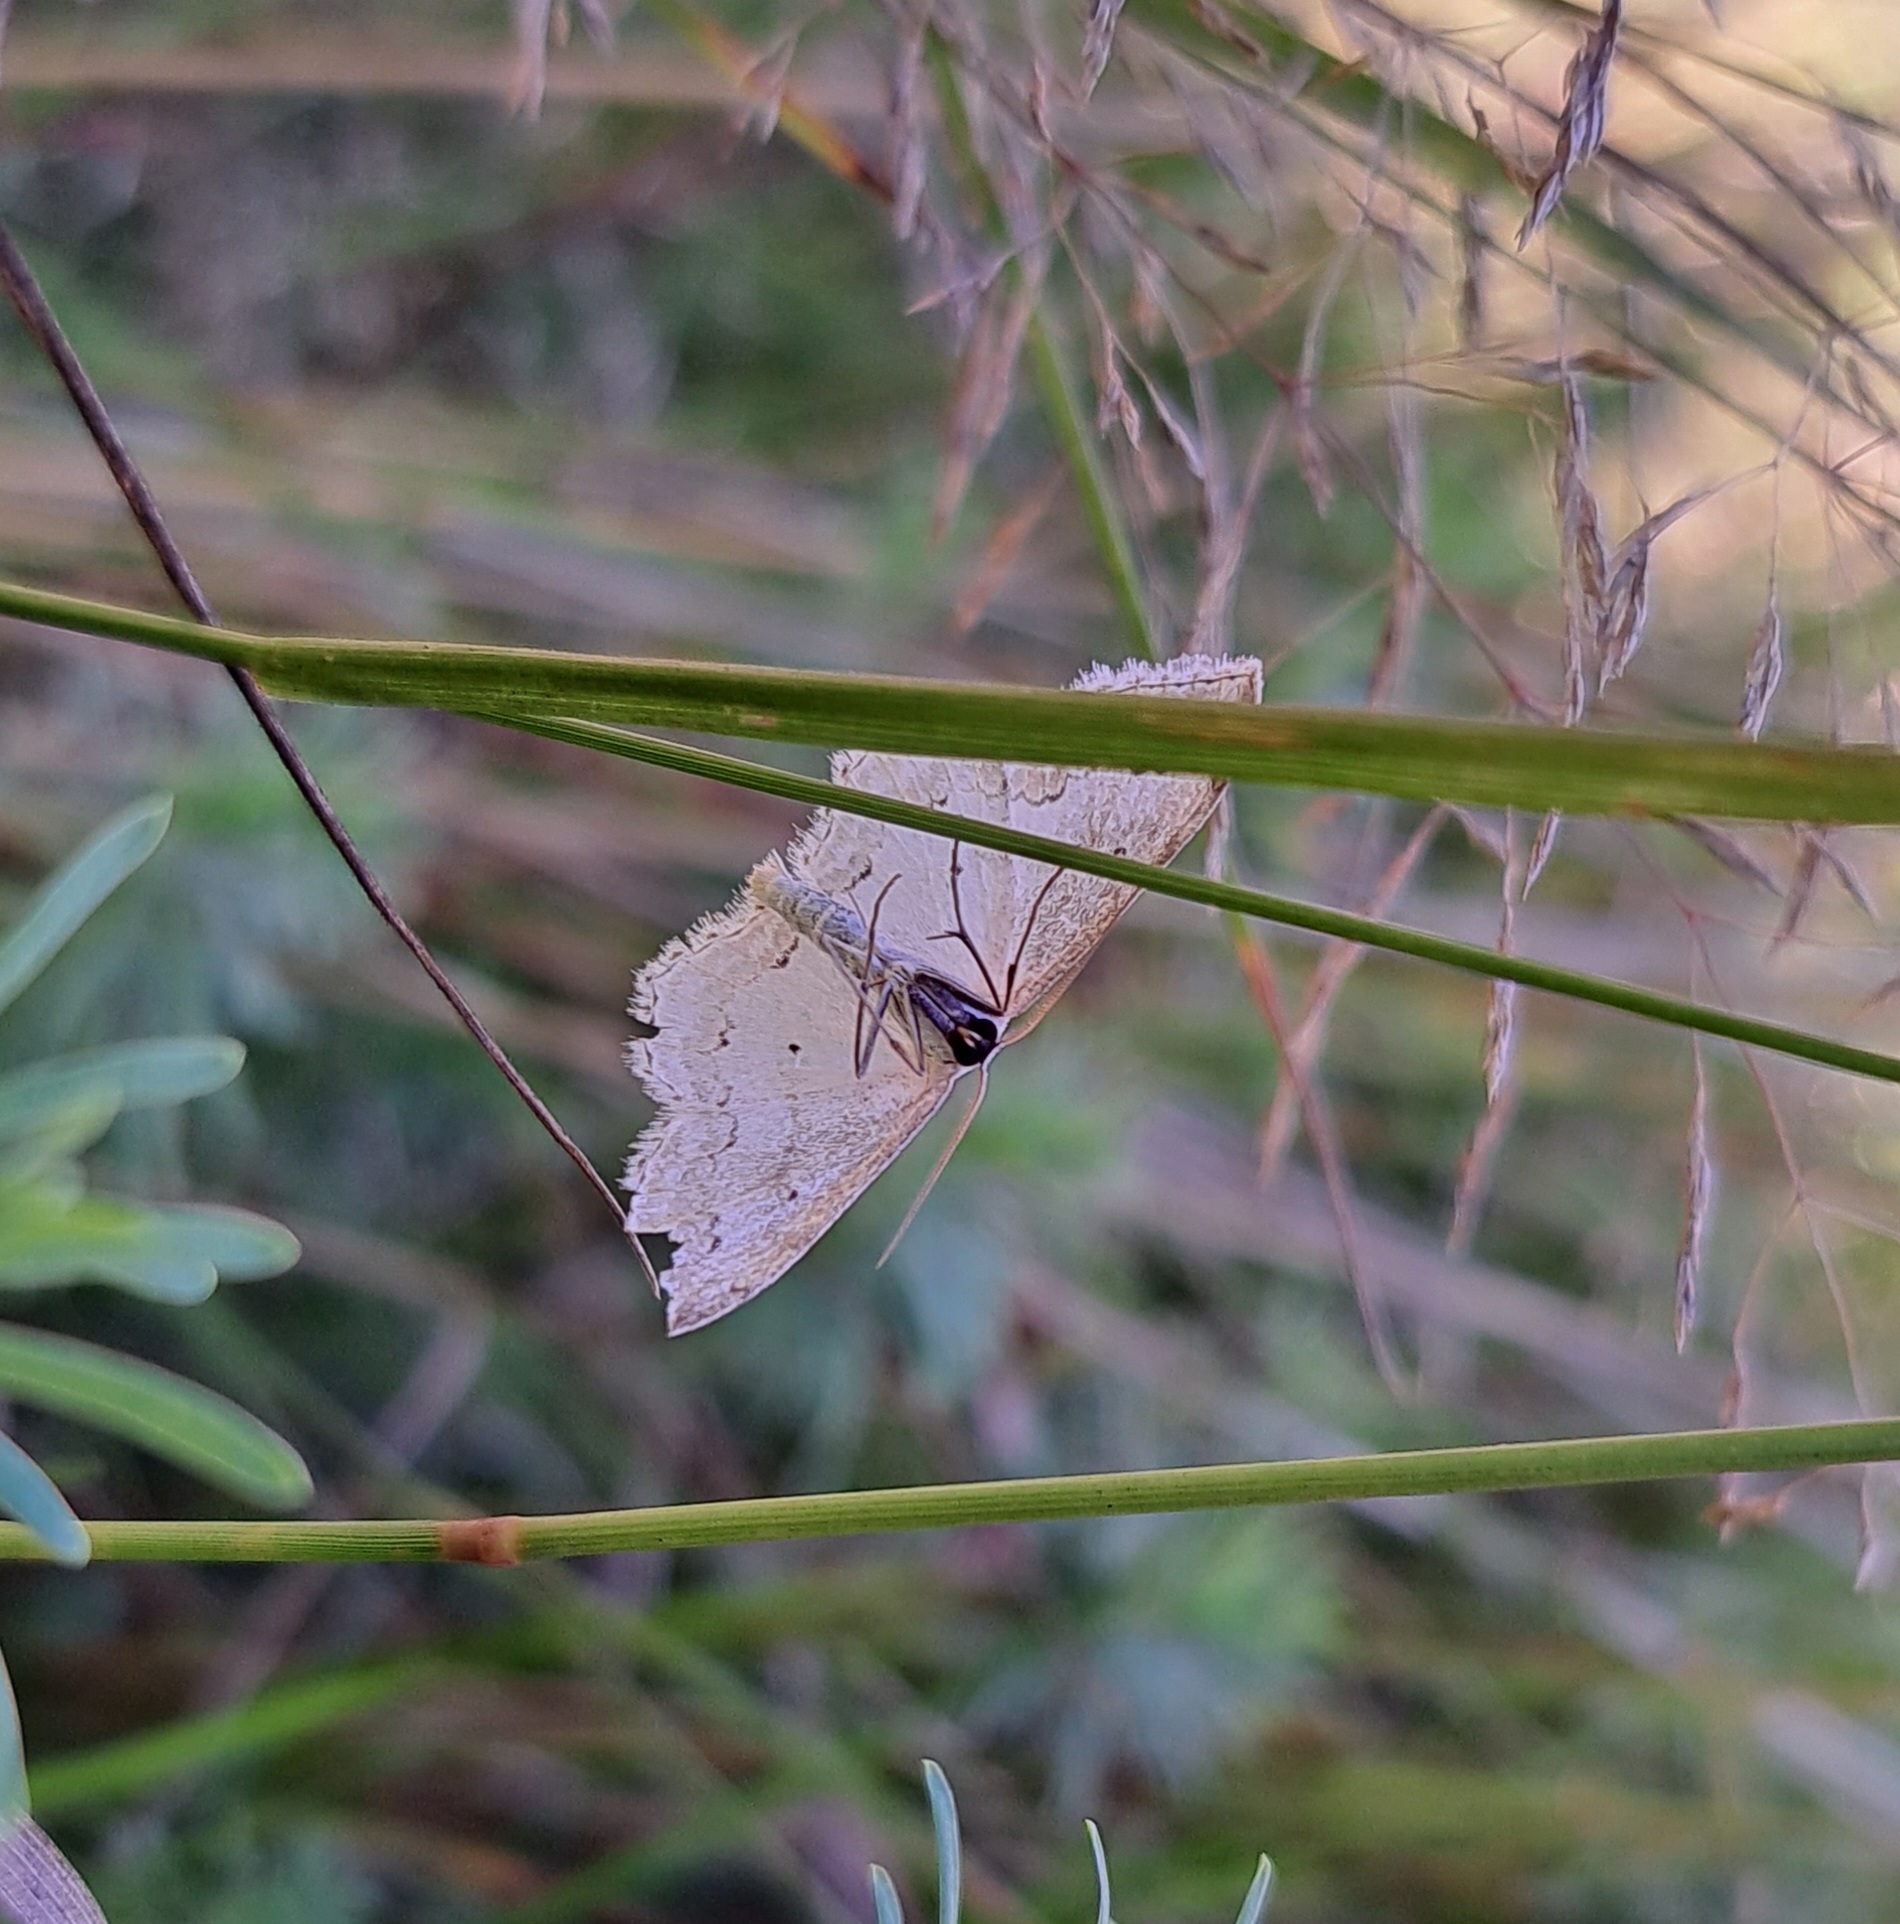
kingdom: Animalia
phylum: Arthropoda
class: Insecta
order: Lepidoptera
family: Geometridae
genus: Scopula
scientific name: Scopula ornata
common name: Lace border
